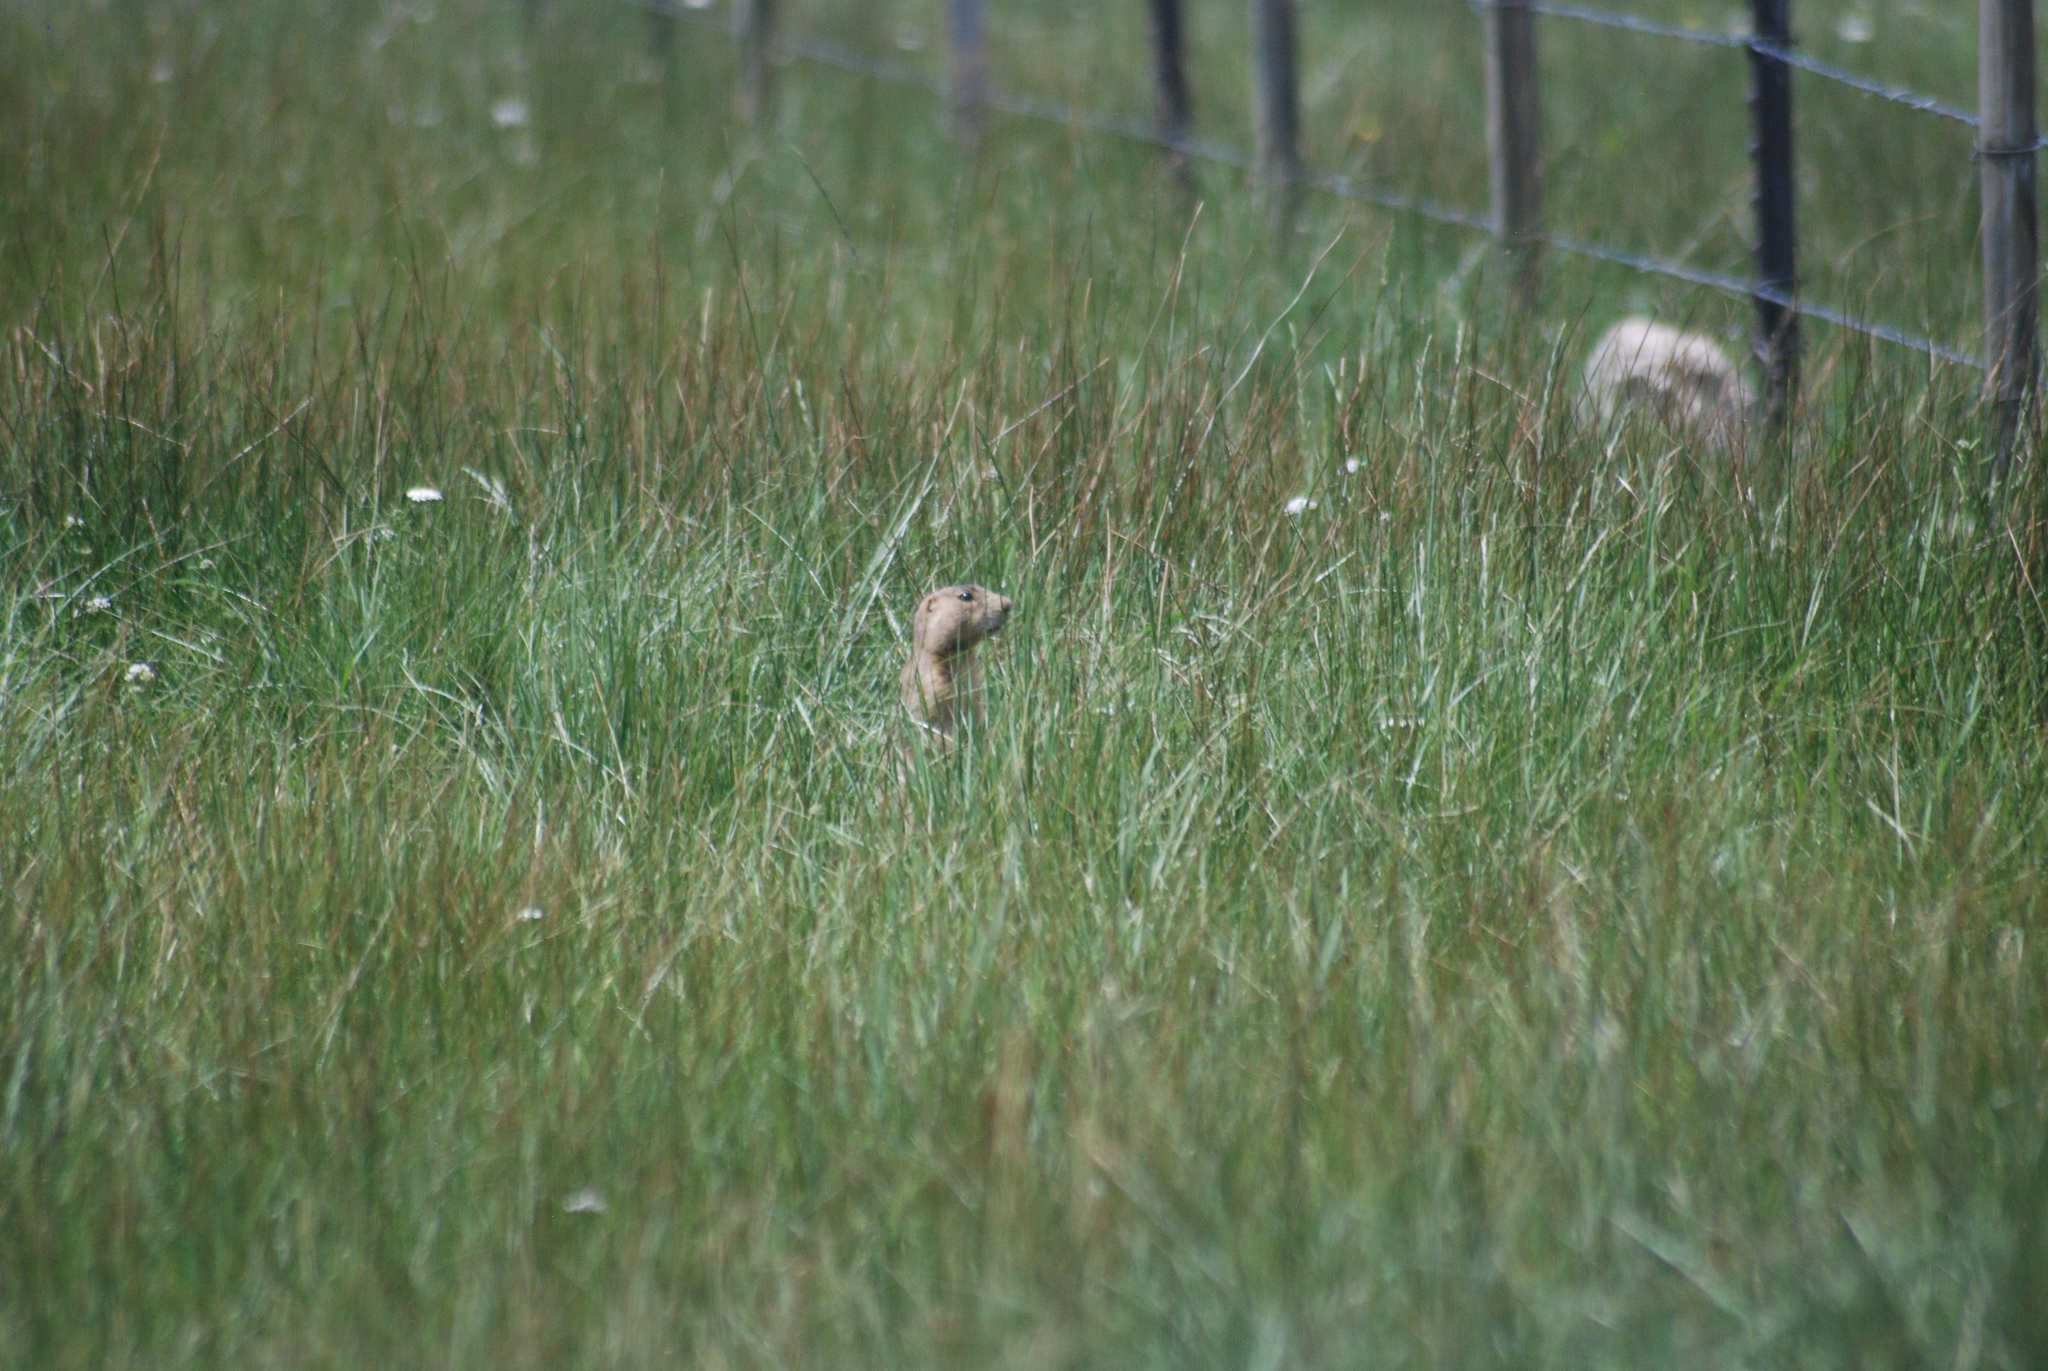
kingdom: Animalia
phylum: Chordata
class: Mammalia
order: Rodentia
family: Sciuridae
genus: Cynomys
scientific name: Cynomys gunnisoni
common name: Gunnison's prairie dog
